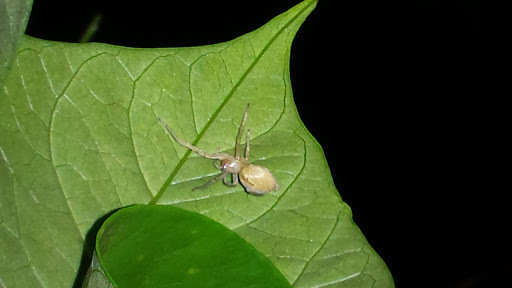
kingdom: Animalia
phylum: Arthropoda
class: Arachnida
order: Araneae
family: Cheiracanthiidae
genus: Cheiracanthium
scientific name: Cheiracanthium mildei
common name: Northern yellow sac spider
